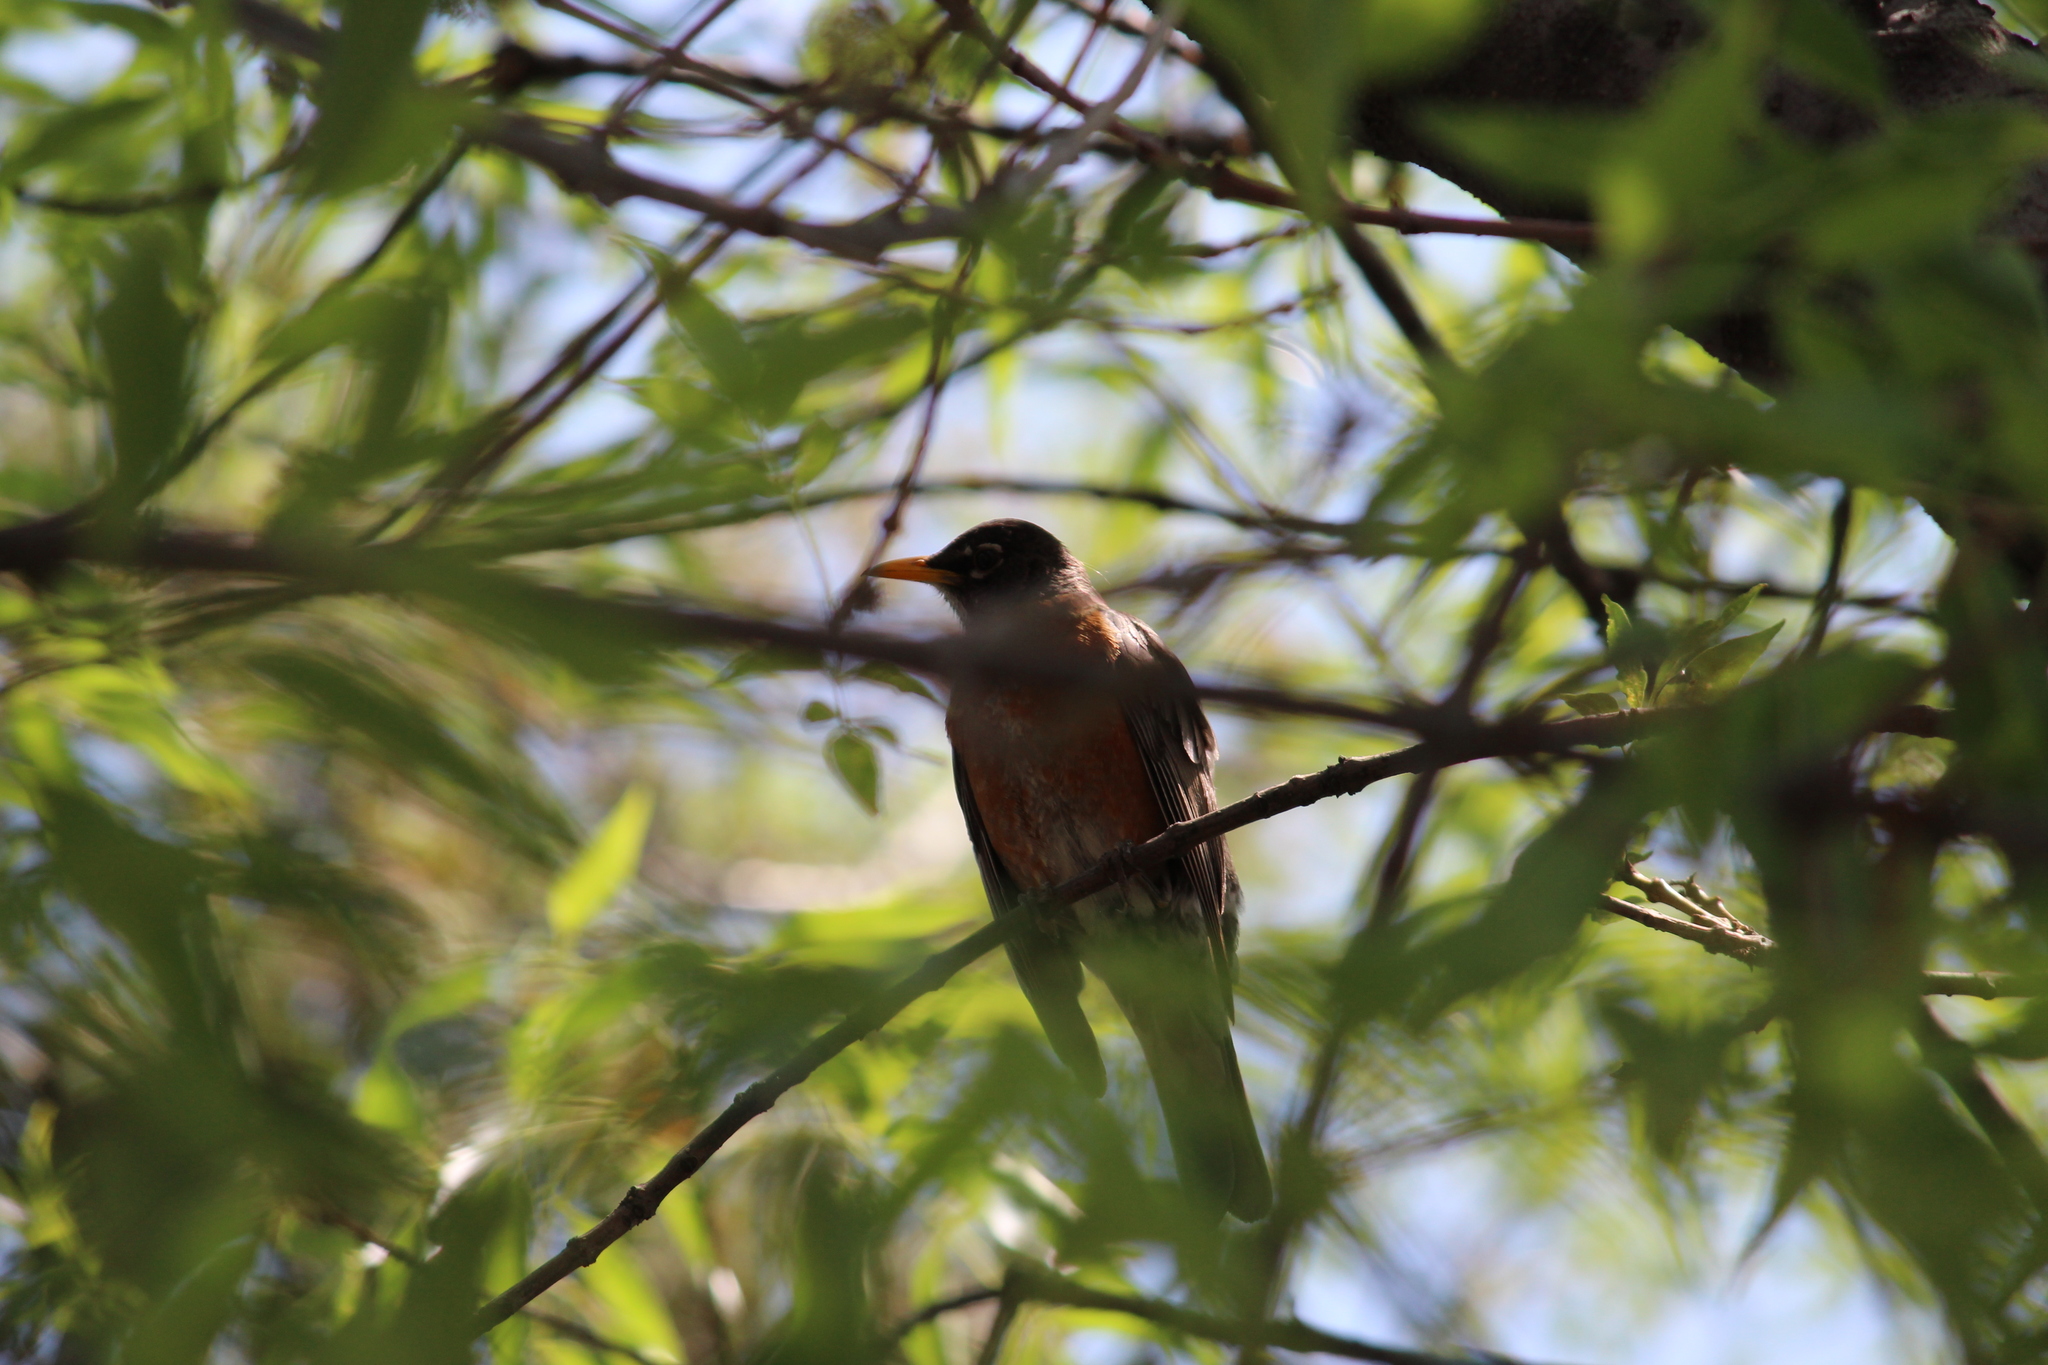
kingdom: Animalia
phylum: Chordata
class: Aves
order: Passeriformes
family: Turdidae
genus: Turdus
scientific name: Turdus migratorius
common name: American robin
